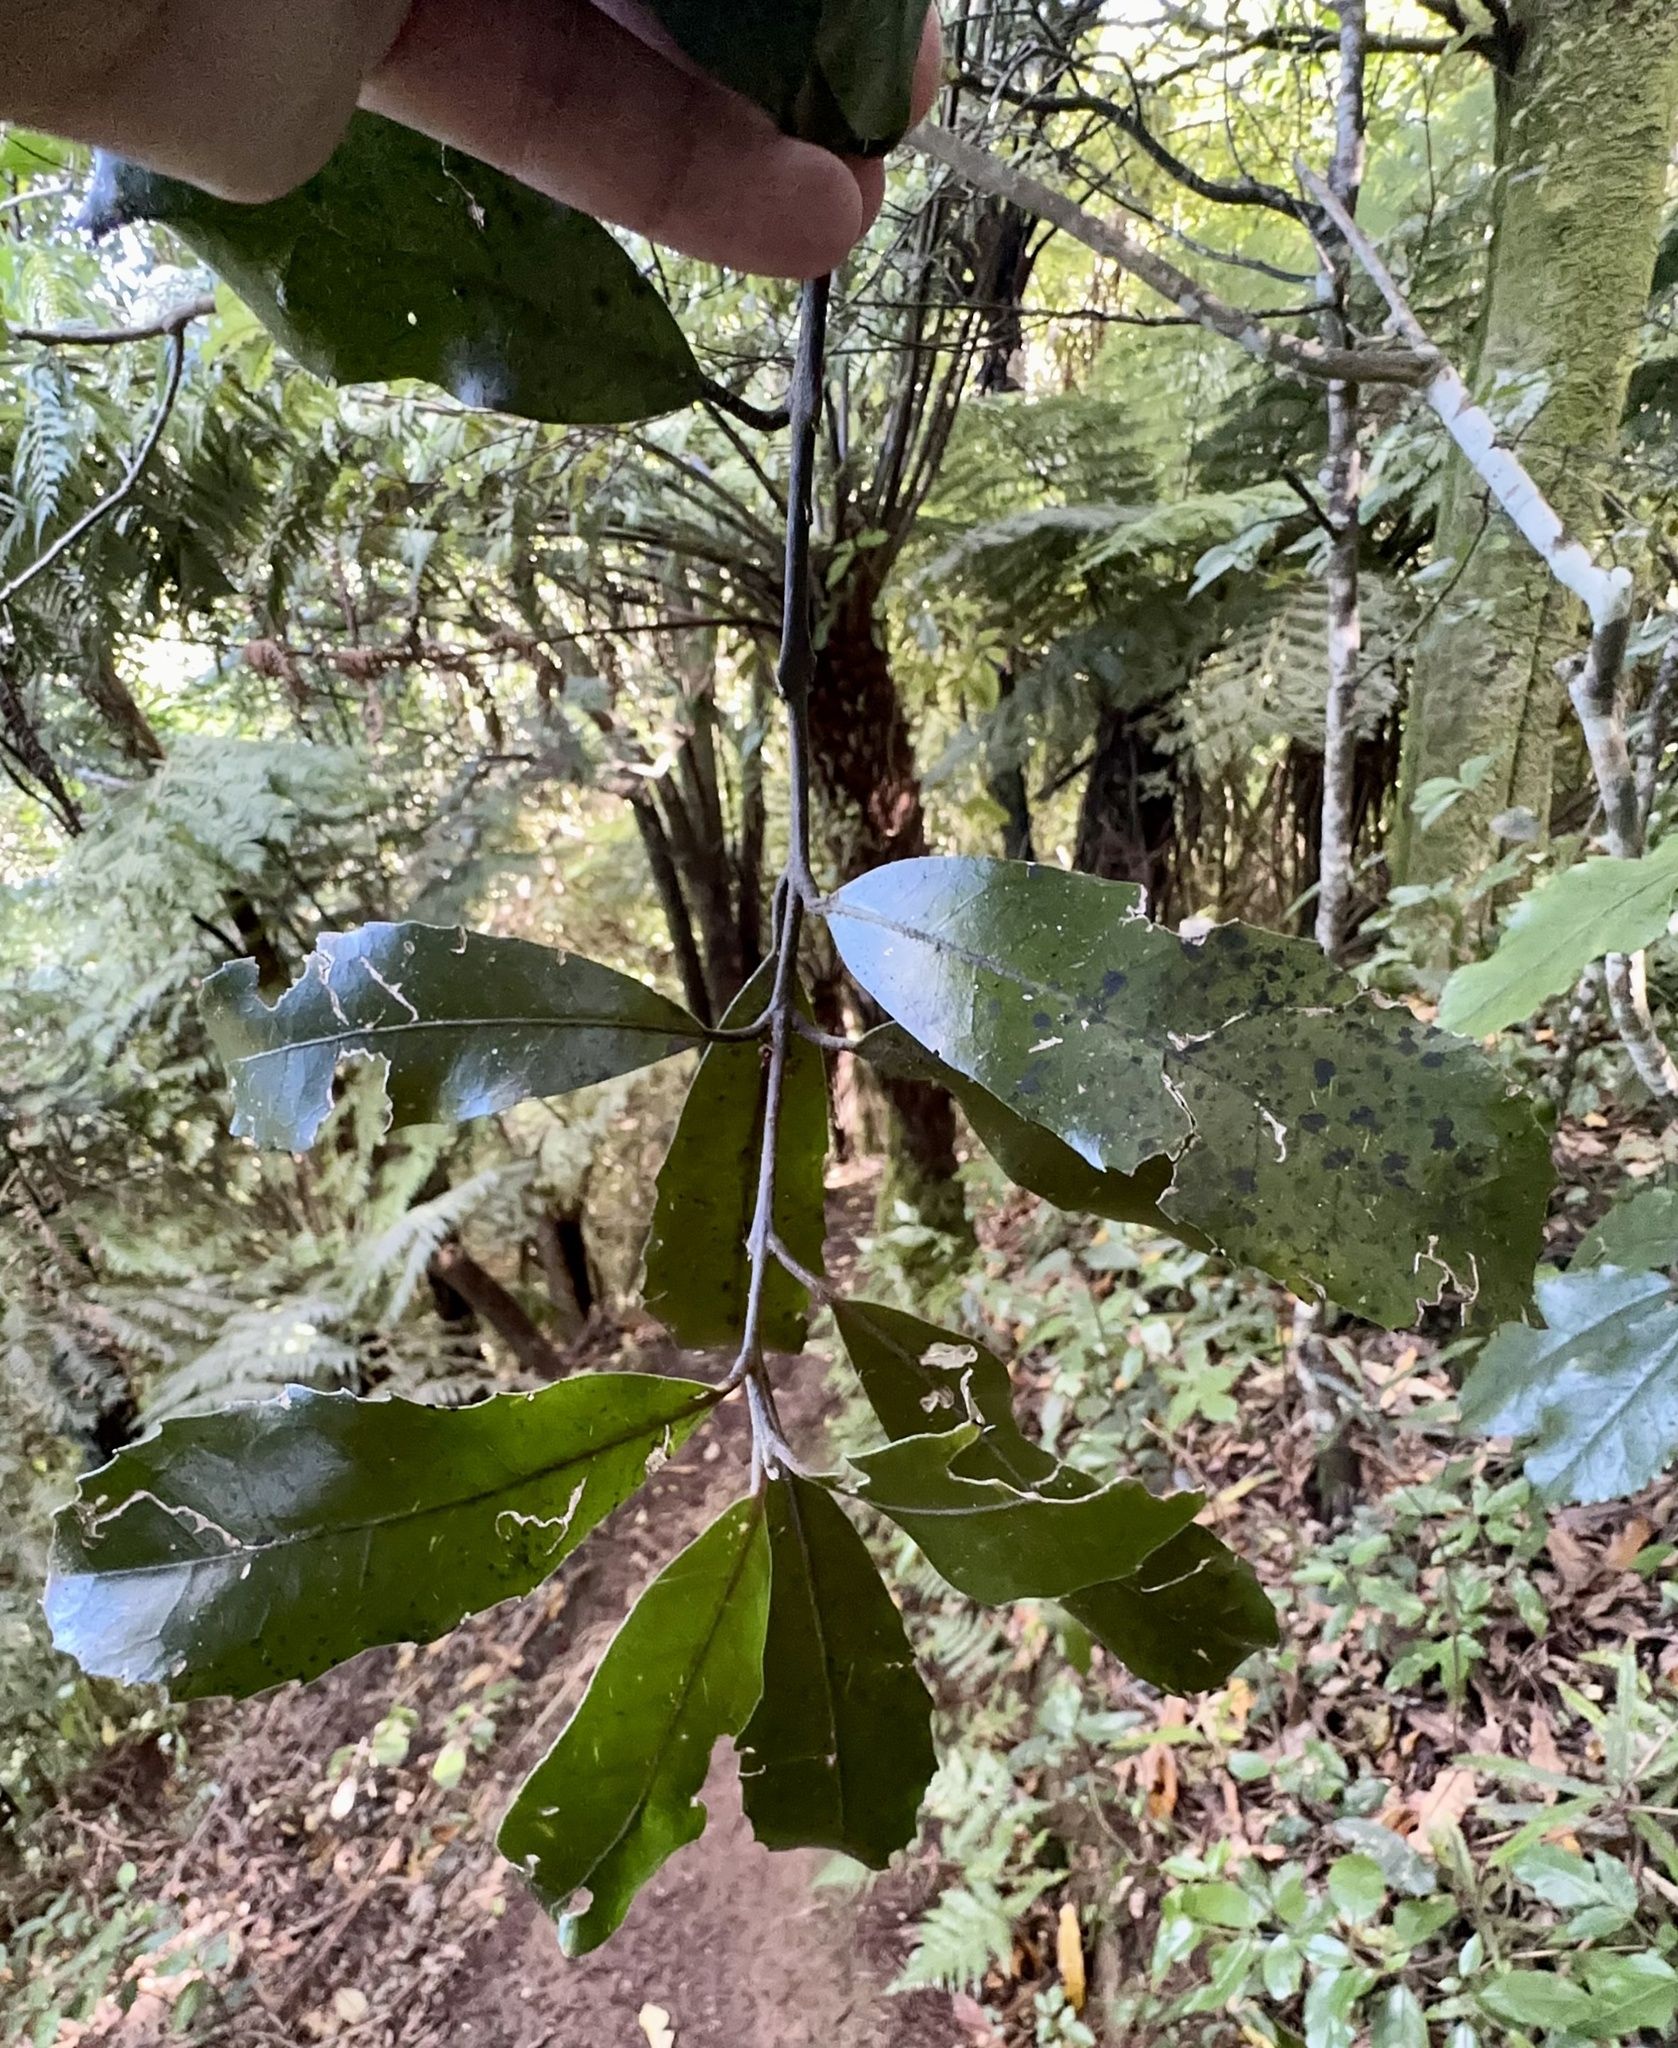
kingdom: Plantae
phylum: Tracheophyta
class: Magnoliopsida
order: Laurales
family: Monimiaceae
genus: Hedycarya
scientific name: Hedycarya arborea
